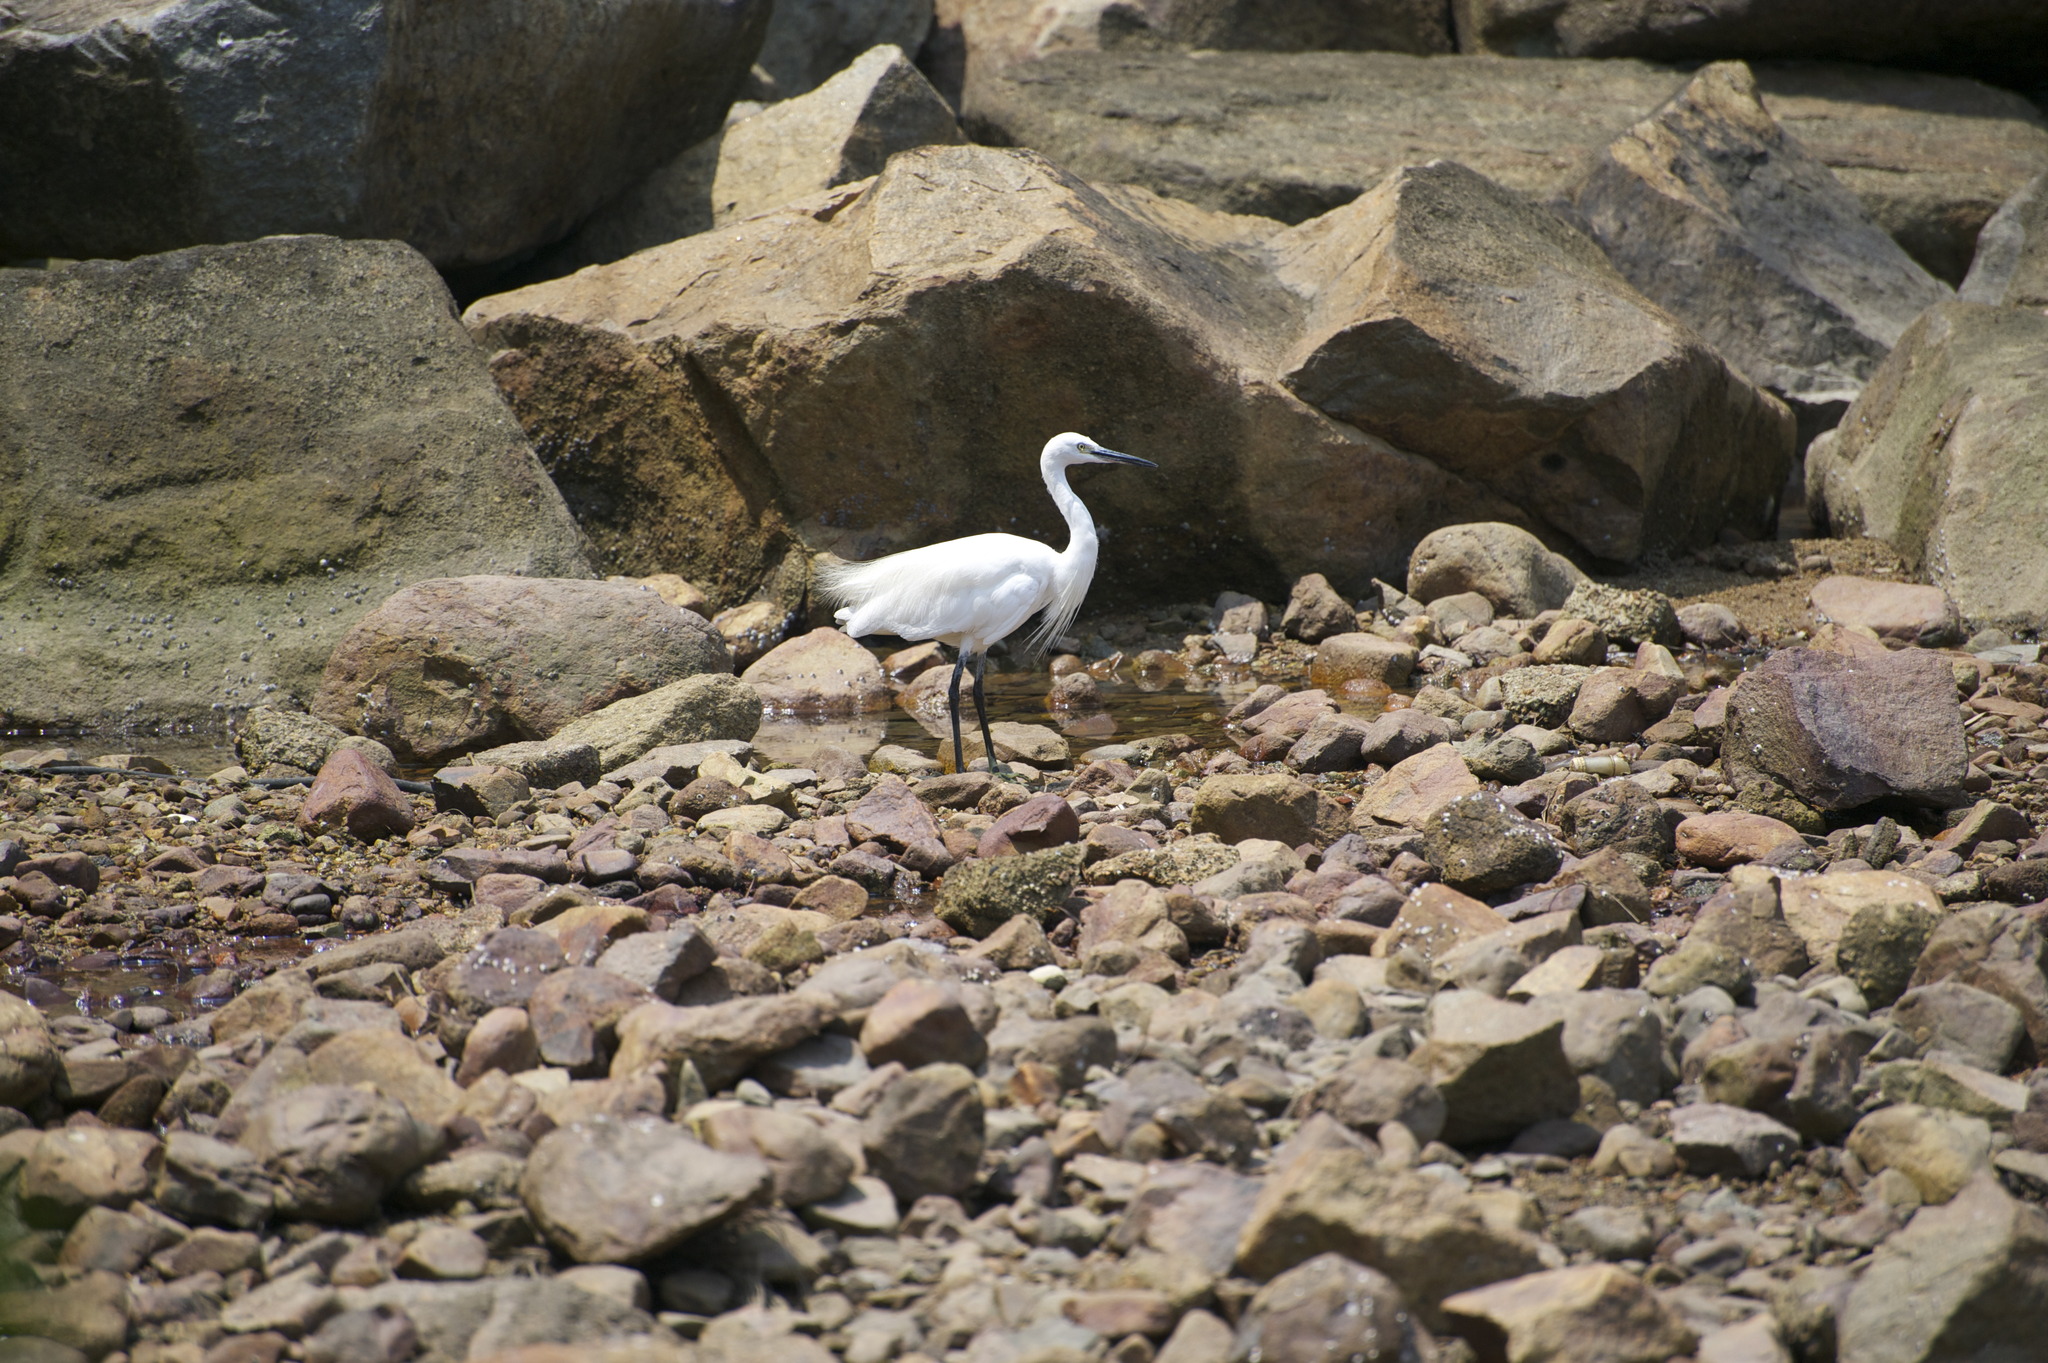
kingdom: Animalia
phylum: Chordata
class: Aves
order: Pelecaniformes
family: Ardeidae
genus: Egretta
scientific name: Egretta garzetta
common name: Little egret
